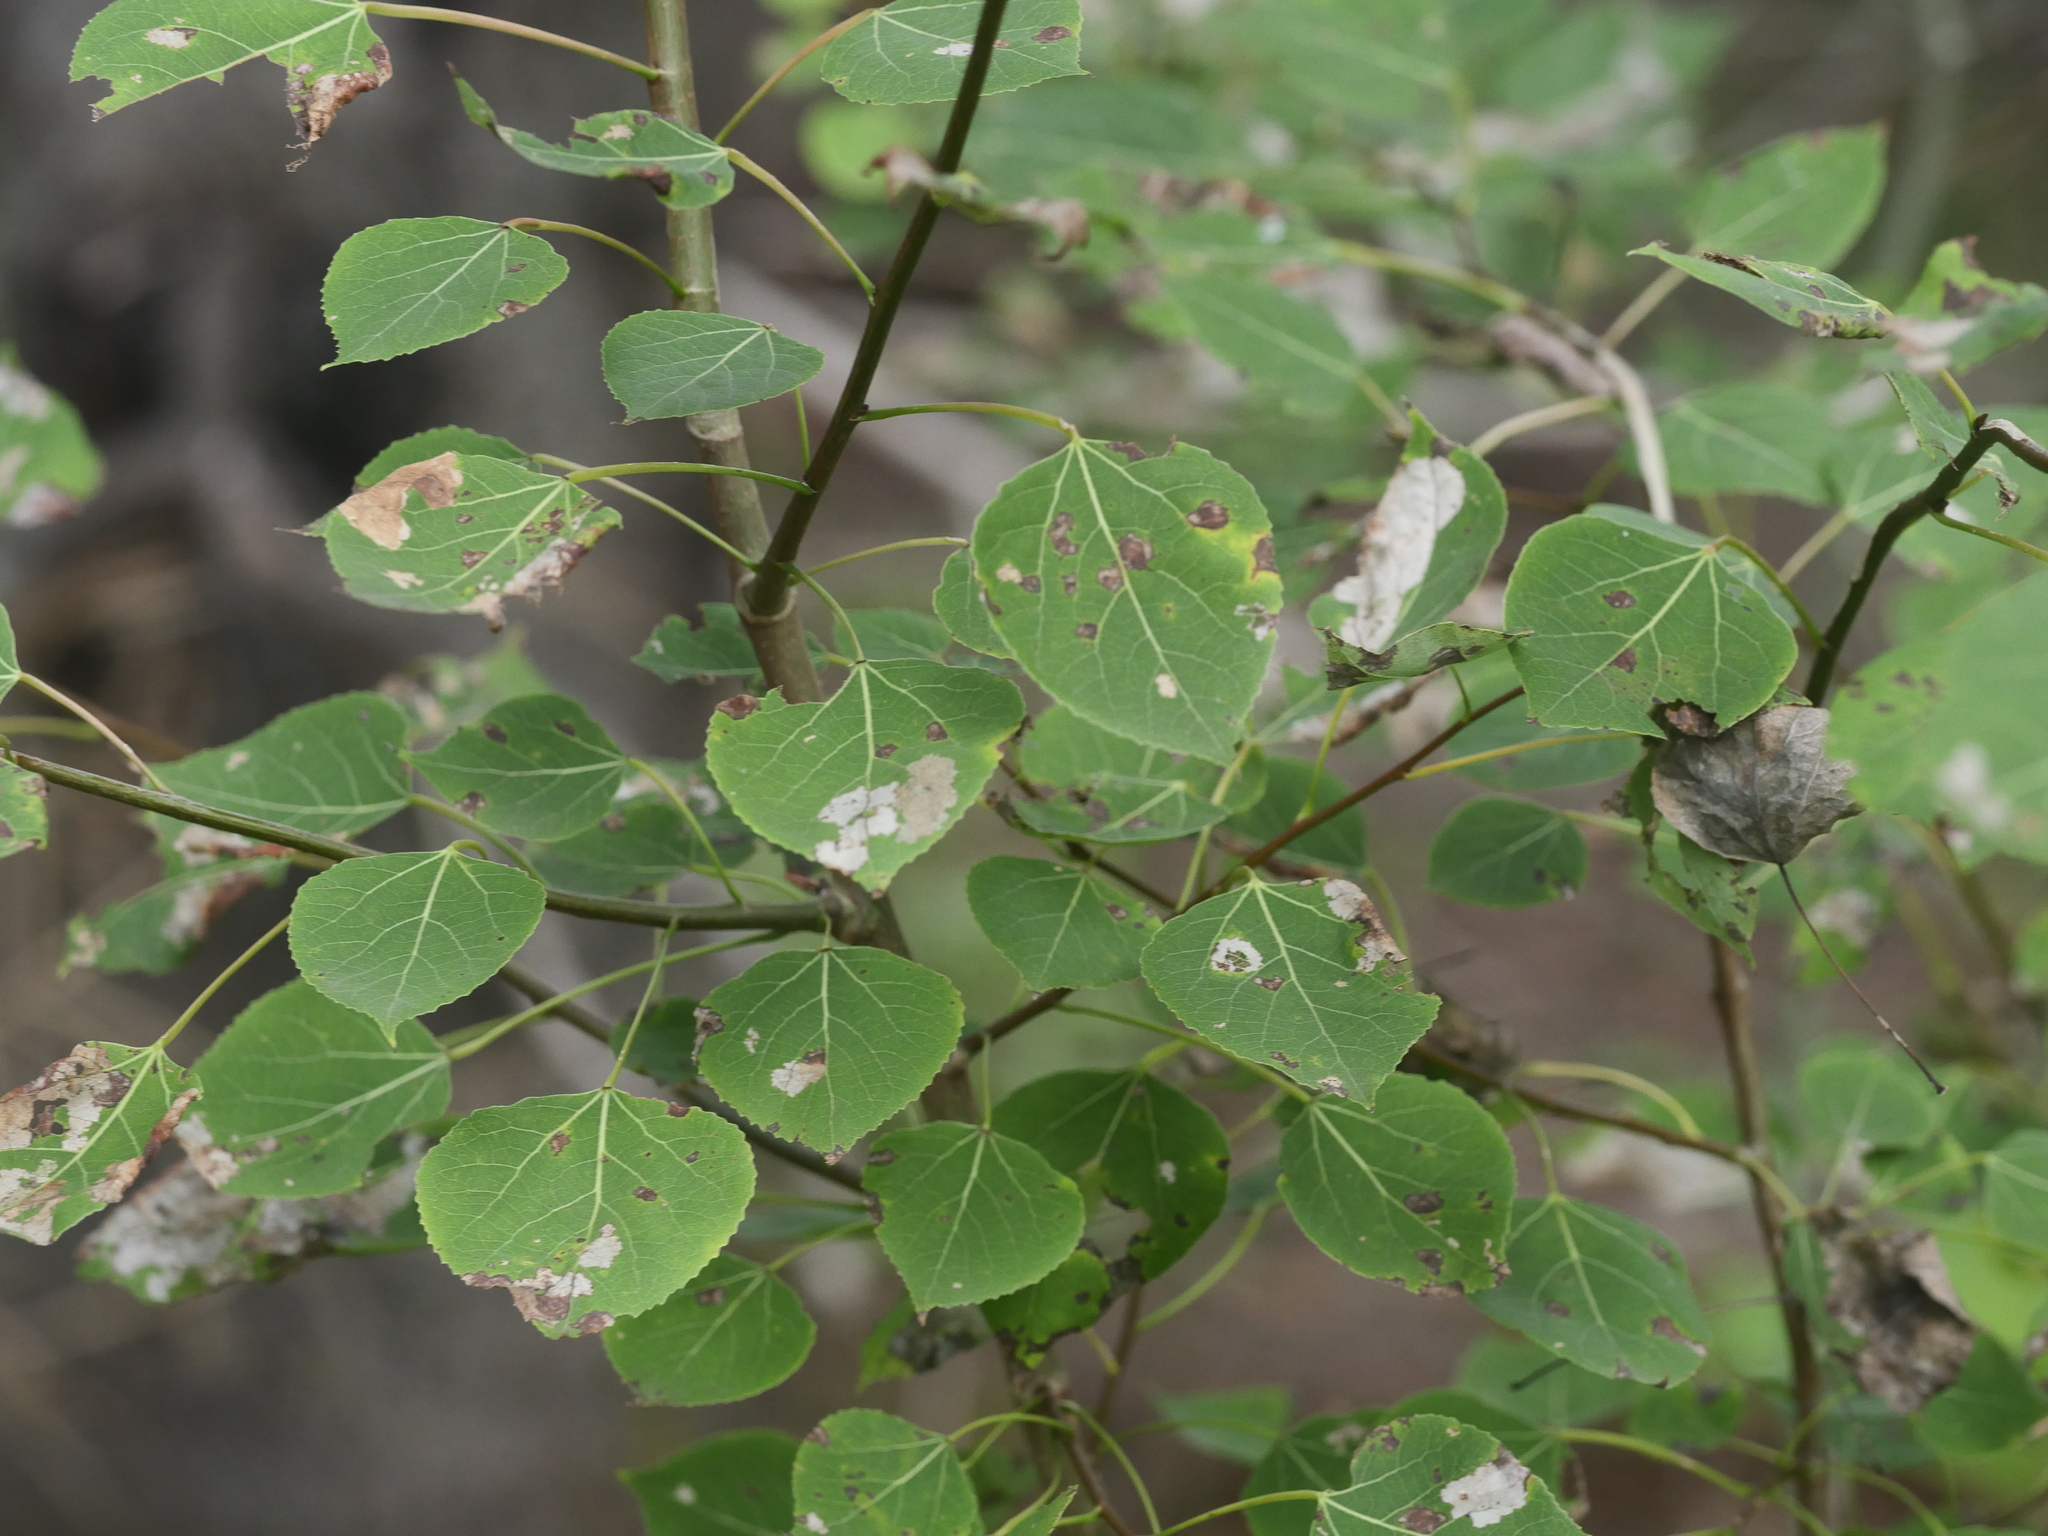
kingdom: Plantae
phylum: Tracheophyta
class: Magnoliopsida
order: Malpighiales
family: Salicaceae
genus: Populus
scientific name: Populus tremuloides
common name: Quaking aspen
